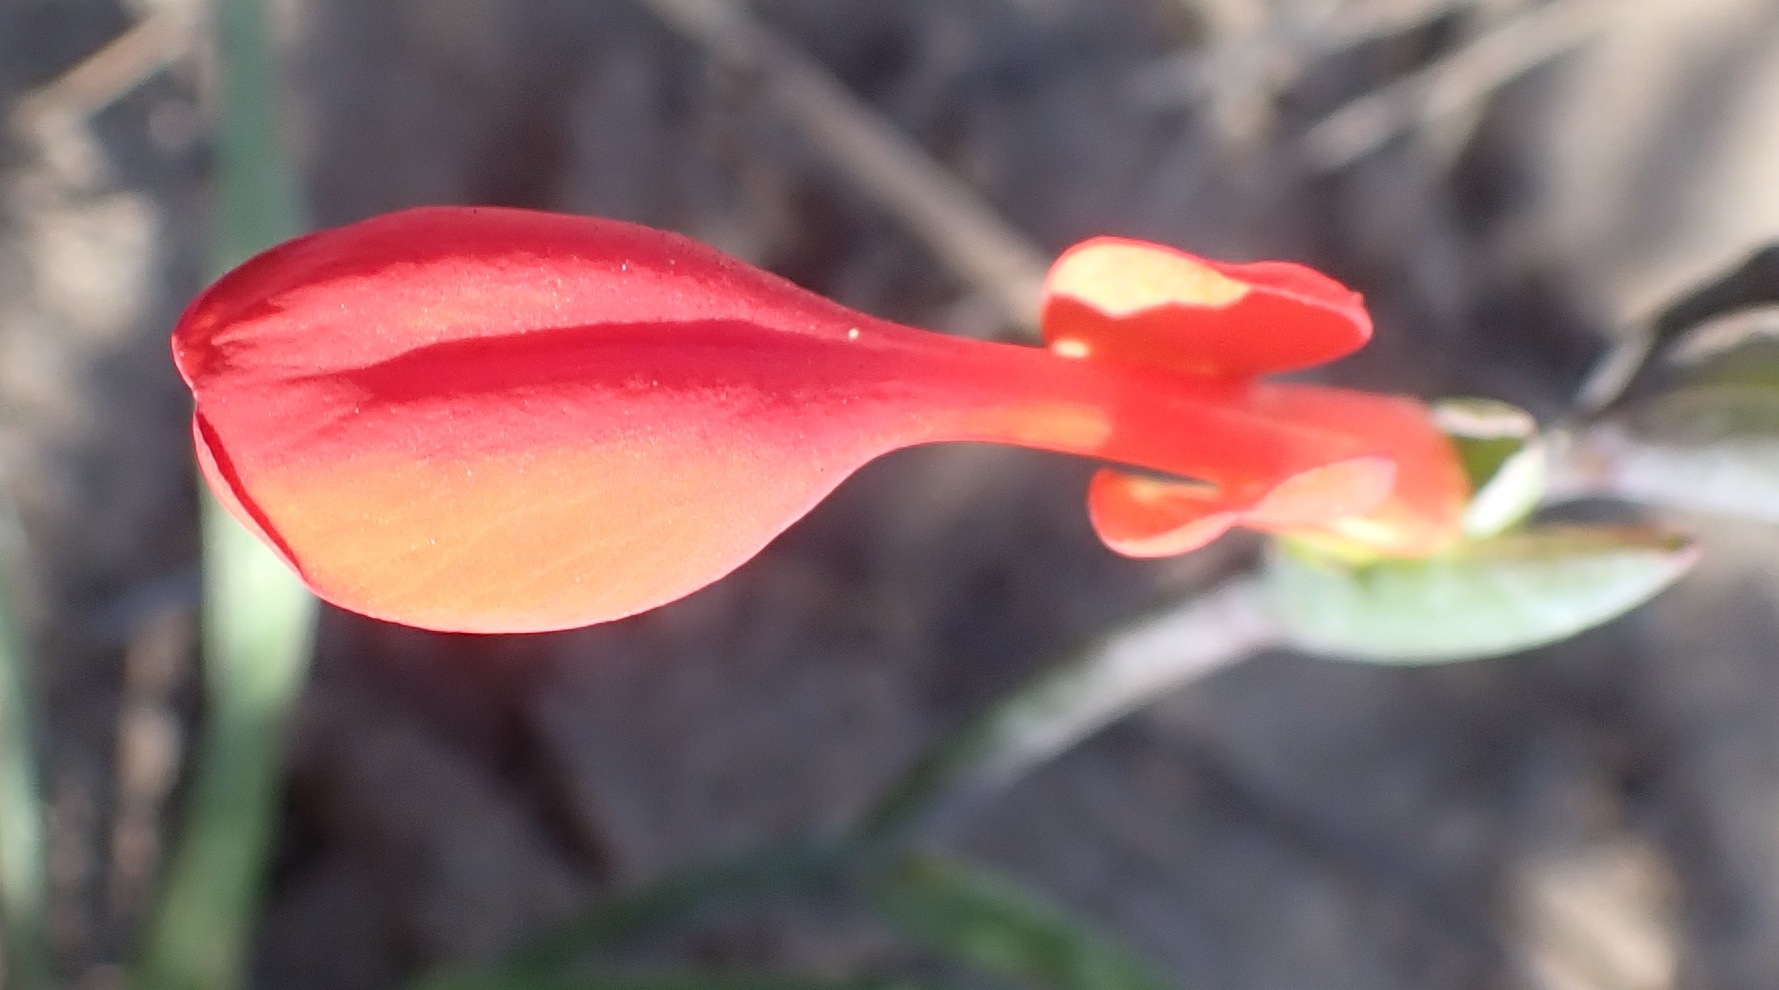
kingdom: Plantae
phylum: Tracheophyta
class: Liliopsida
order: Asparagales
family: Iridaceae
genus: Gladiolus
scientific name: Gladiolus cunonius
